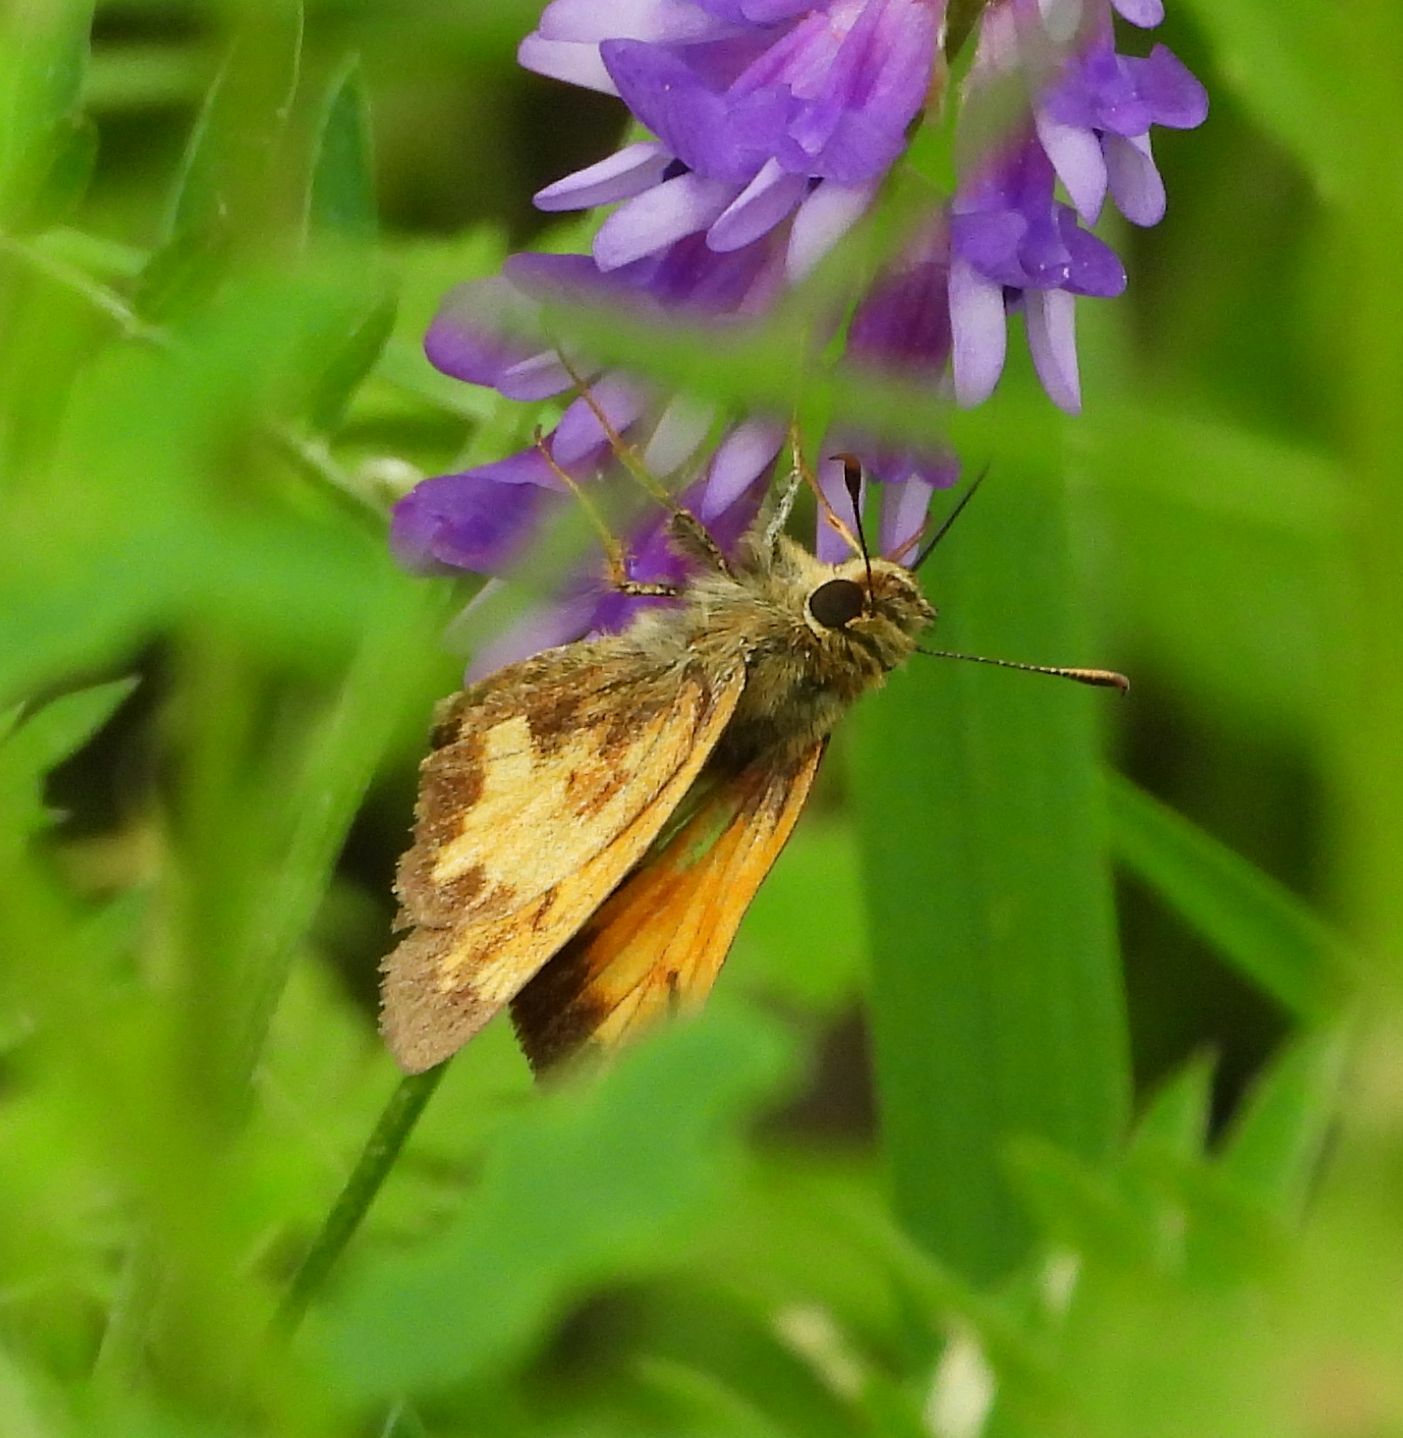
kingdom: Animalia
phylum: Arthropoda
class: Insecta
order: Lepidoptera
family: Hesperiidae
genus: Lon
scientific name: Lon hobomok
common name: Hobomok skipper
